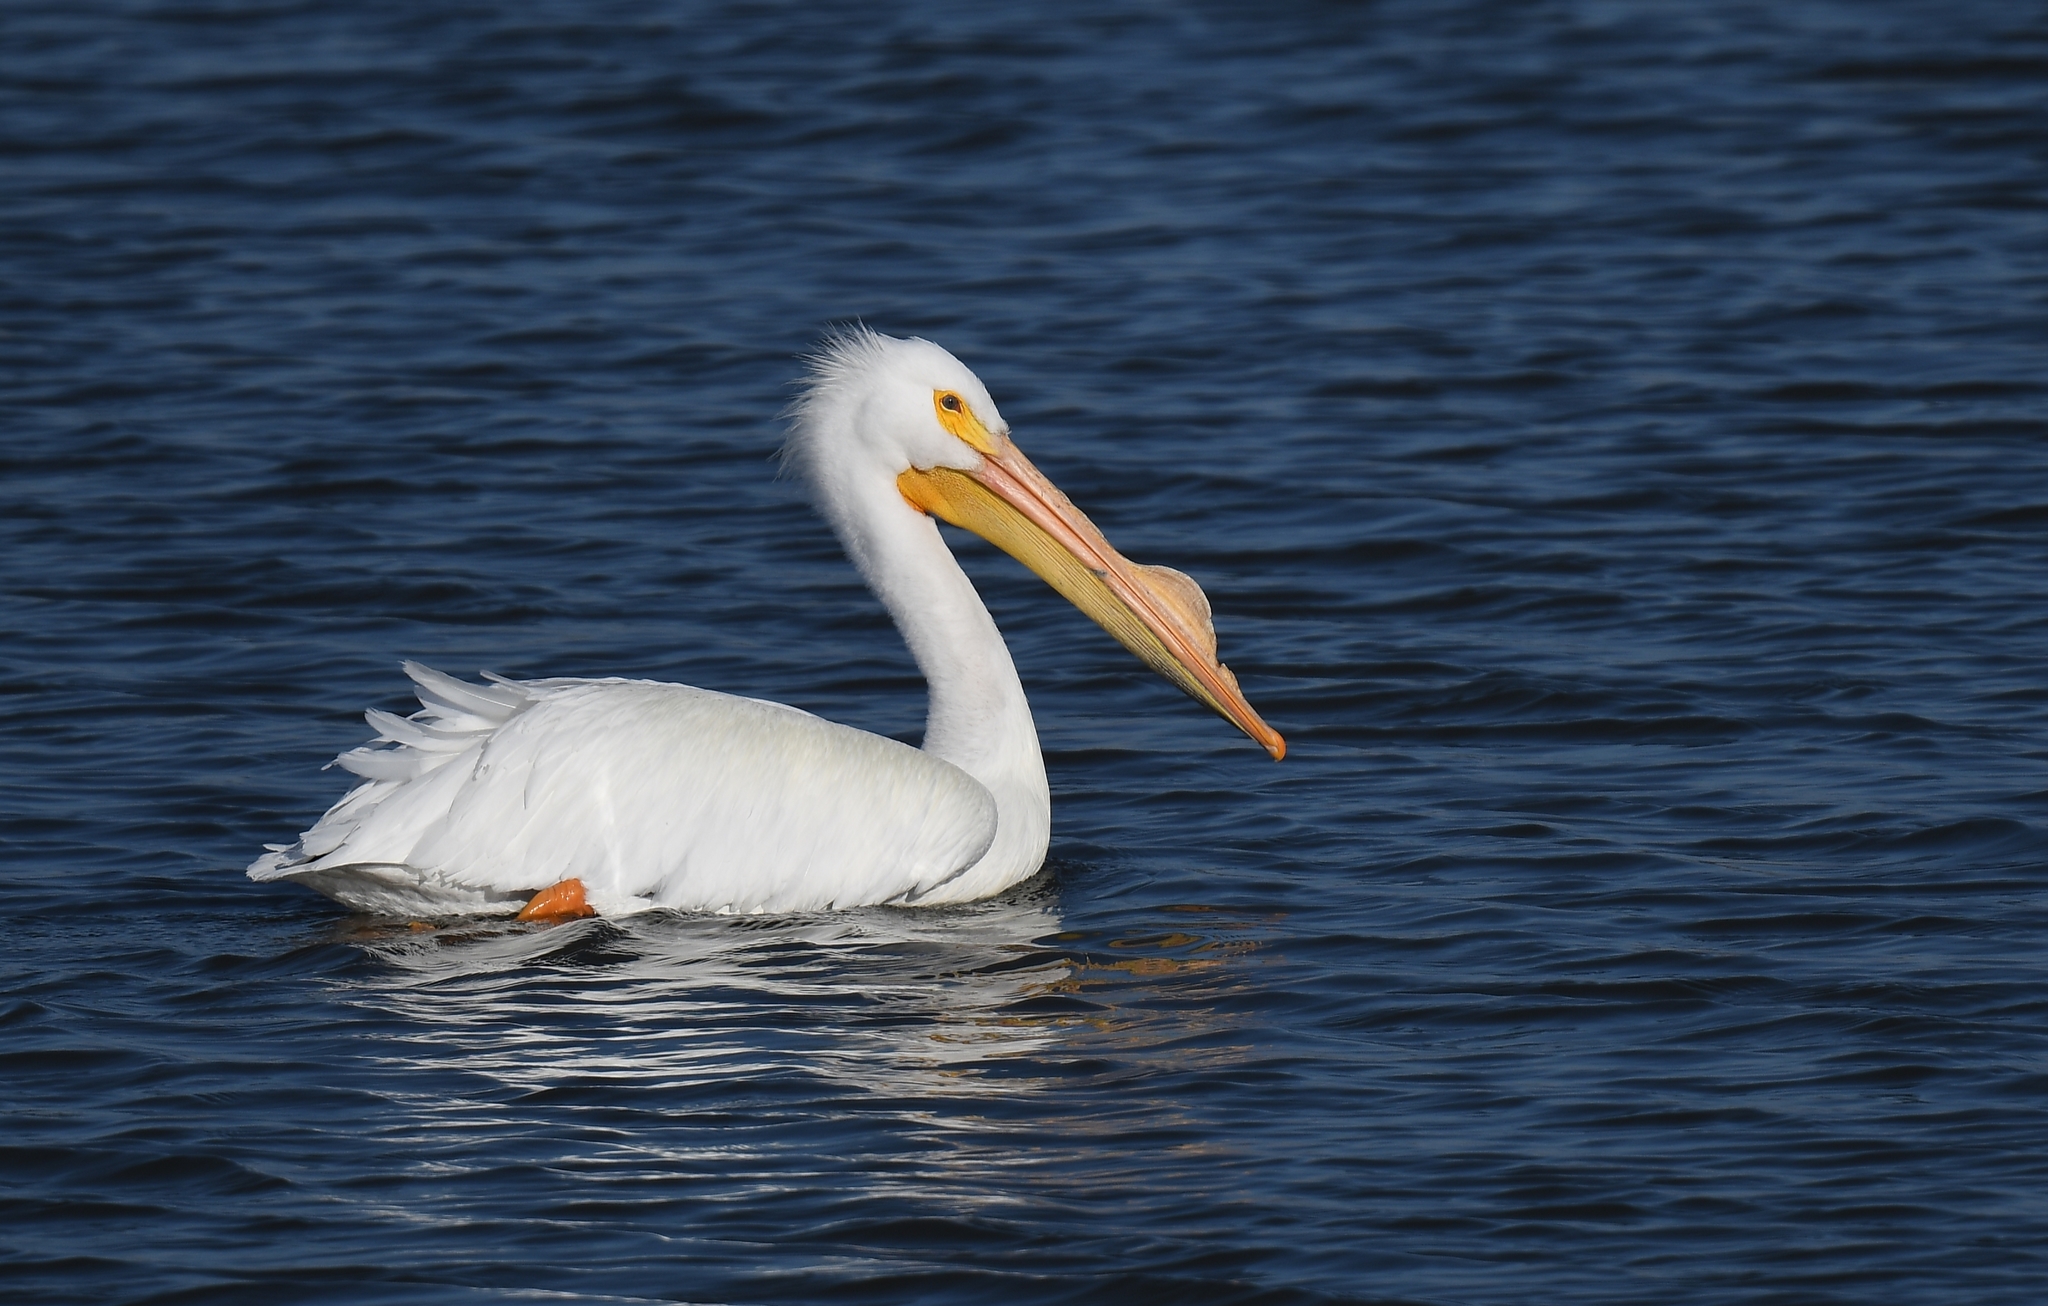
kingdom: Animalia
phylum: Chordata
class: Aves
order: Pelecaniformes
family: Pelecanidae
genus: Pelecanus
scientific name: Pelecanus erythrorhynchos
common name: American white pelican
